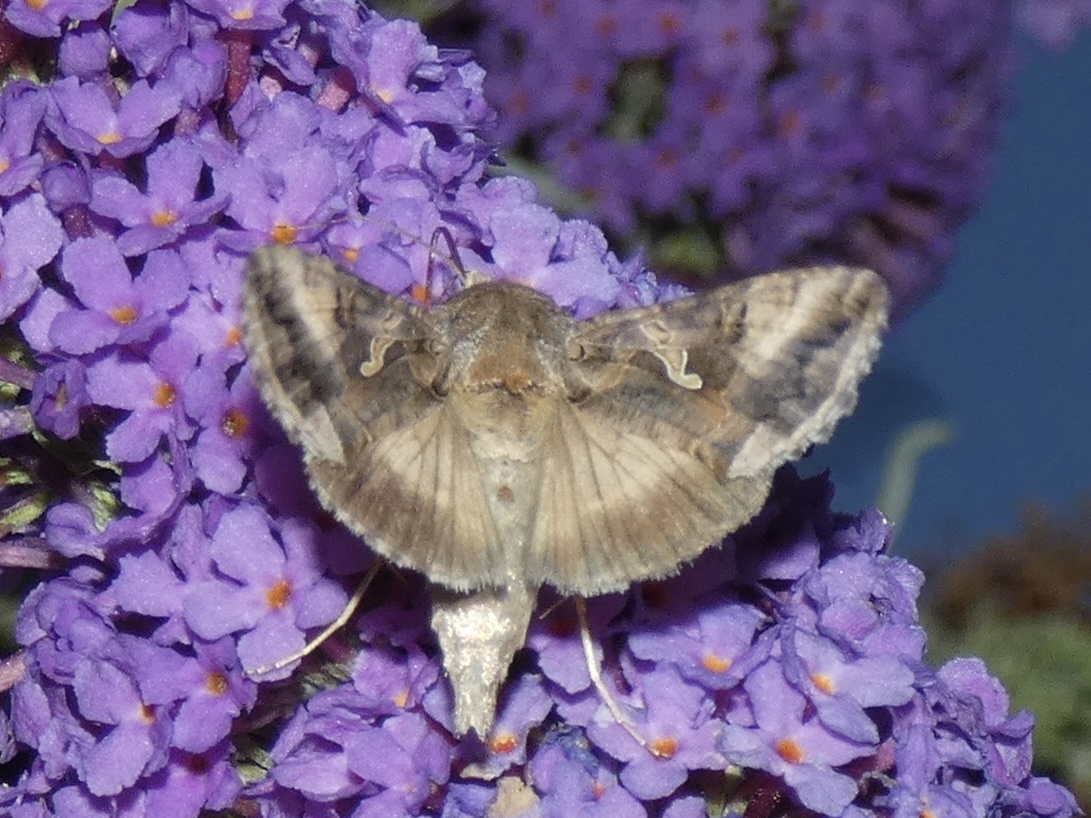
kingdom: Animalia
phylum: Arthropoda
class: Insecta
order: Lepidoptera
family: Noctuidae
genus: Autographa
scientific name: Autographa gamma
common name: Silver y
